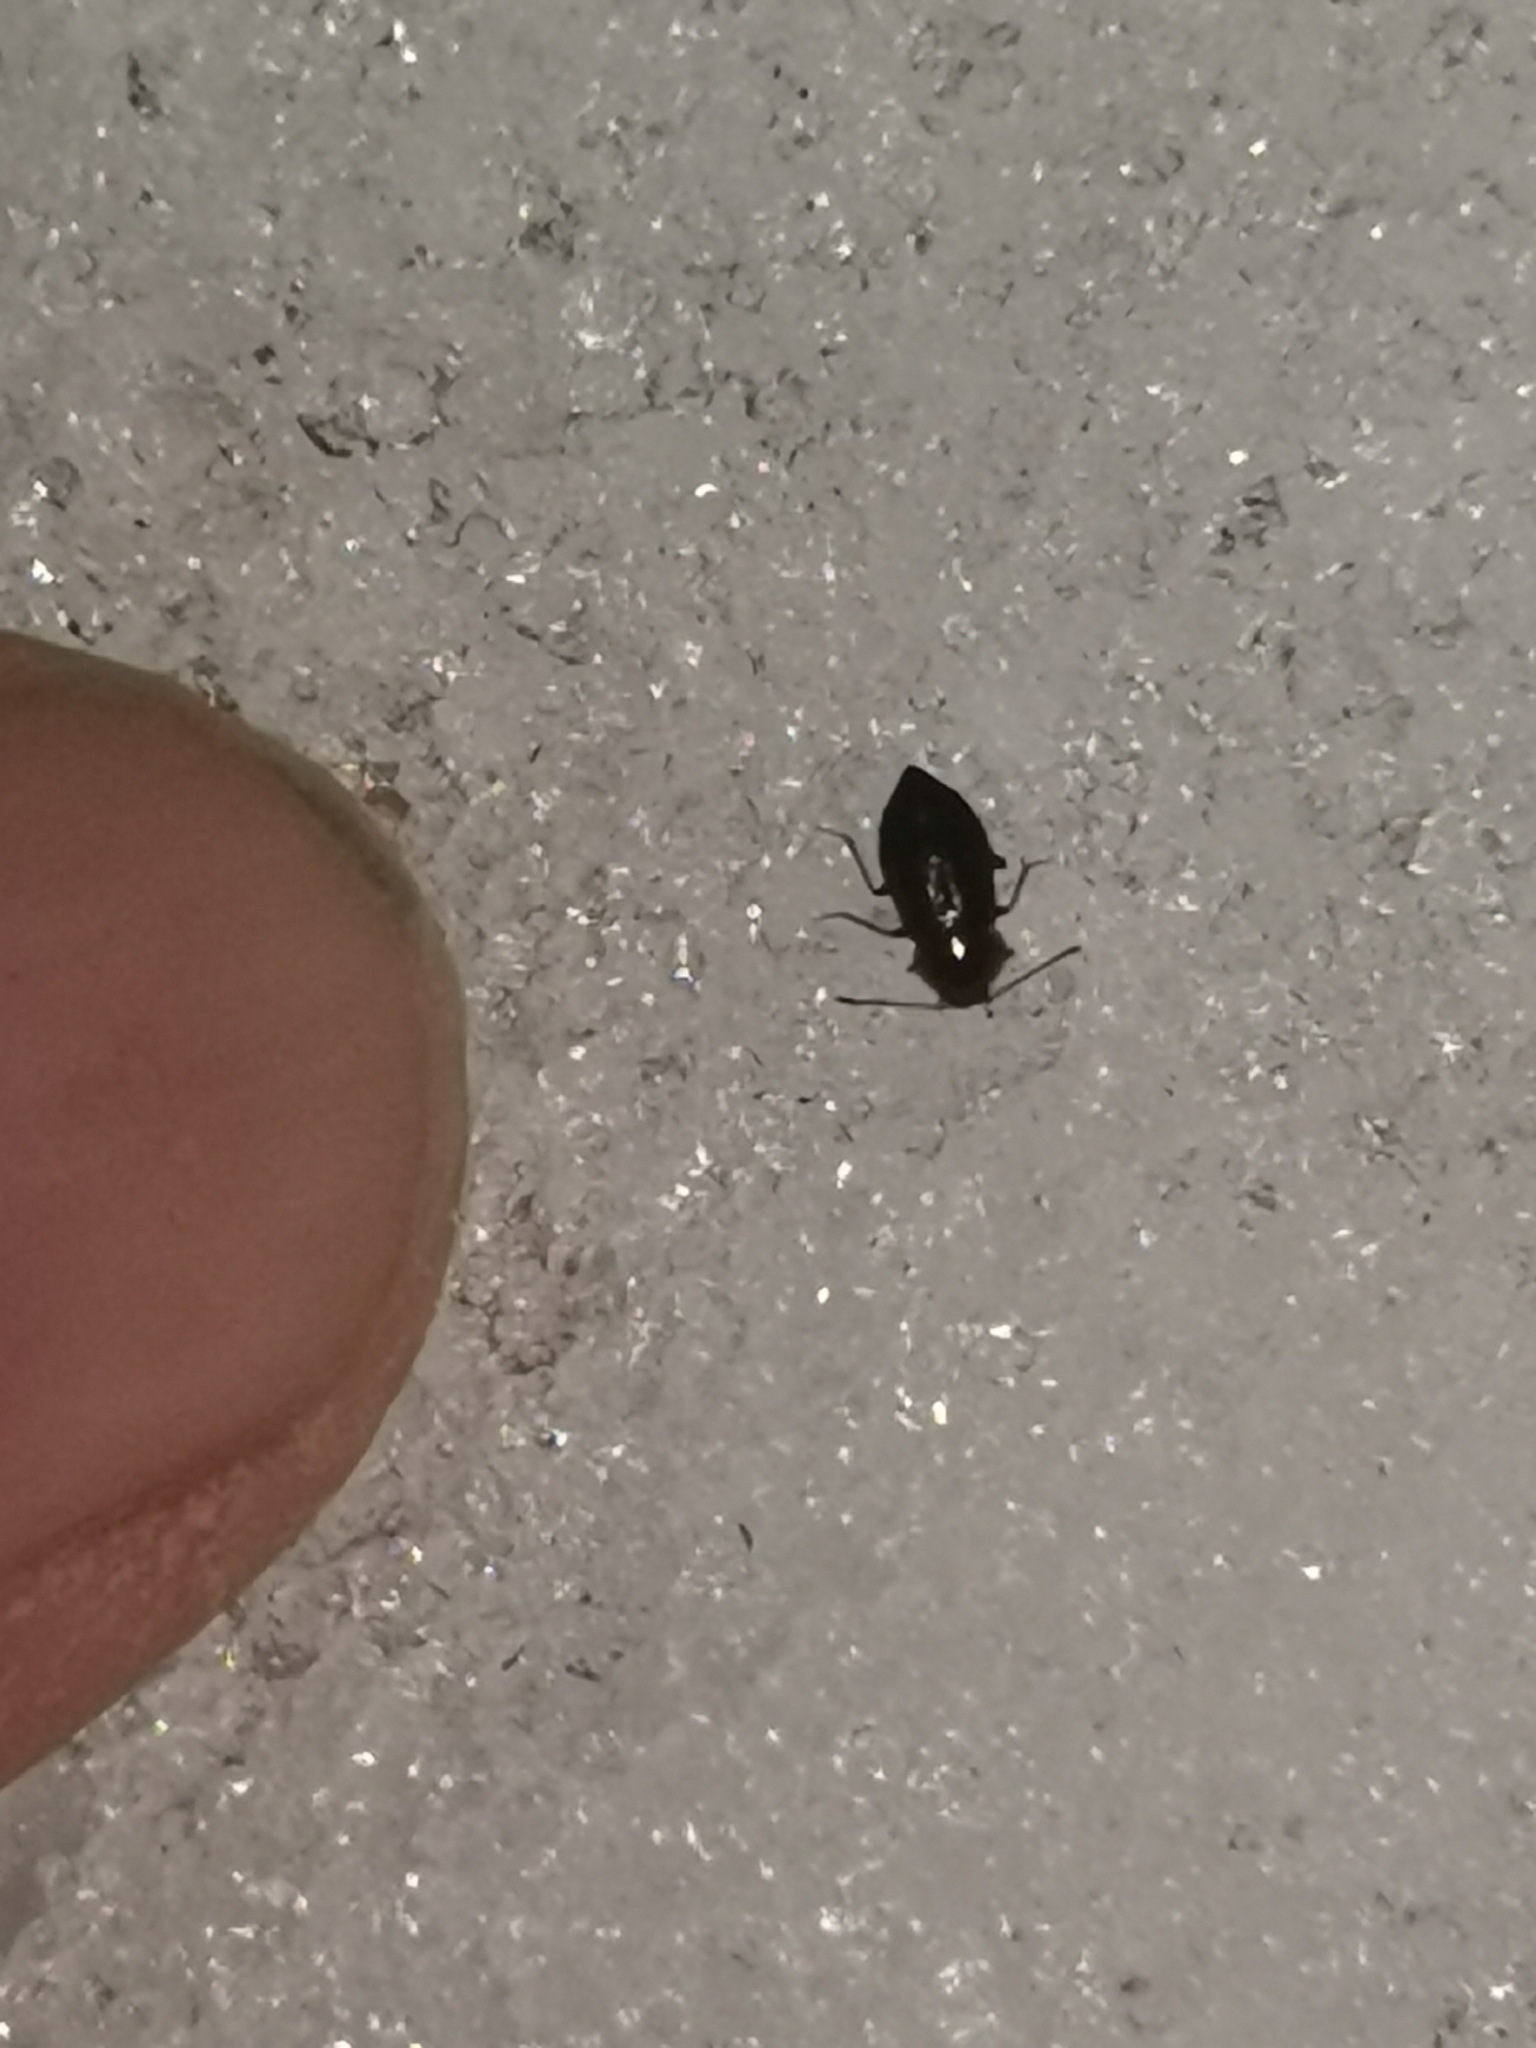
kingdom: Animalia
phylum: Arthropoda
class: Insecta
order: Coleoptera
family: Staphylinidae
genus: Olophrum
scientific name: Olophrum fuscum
